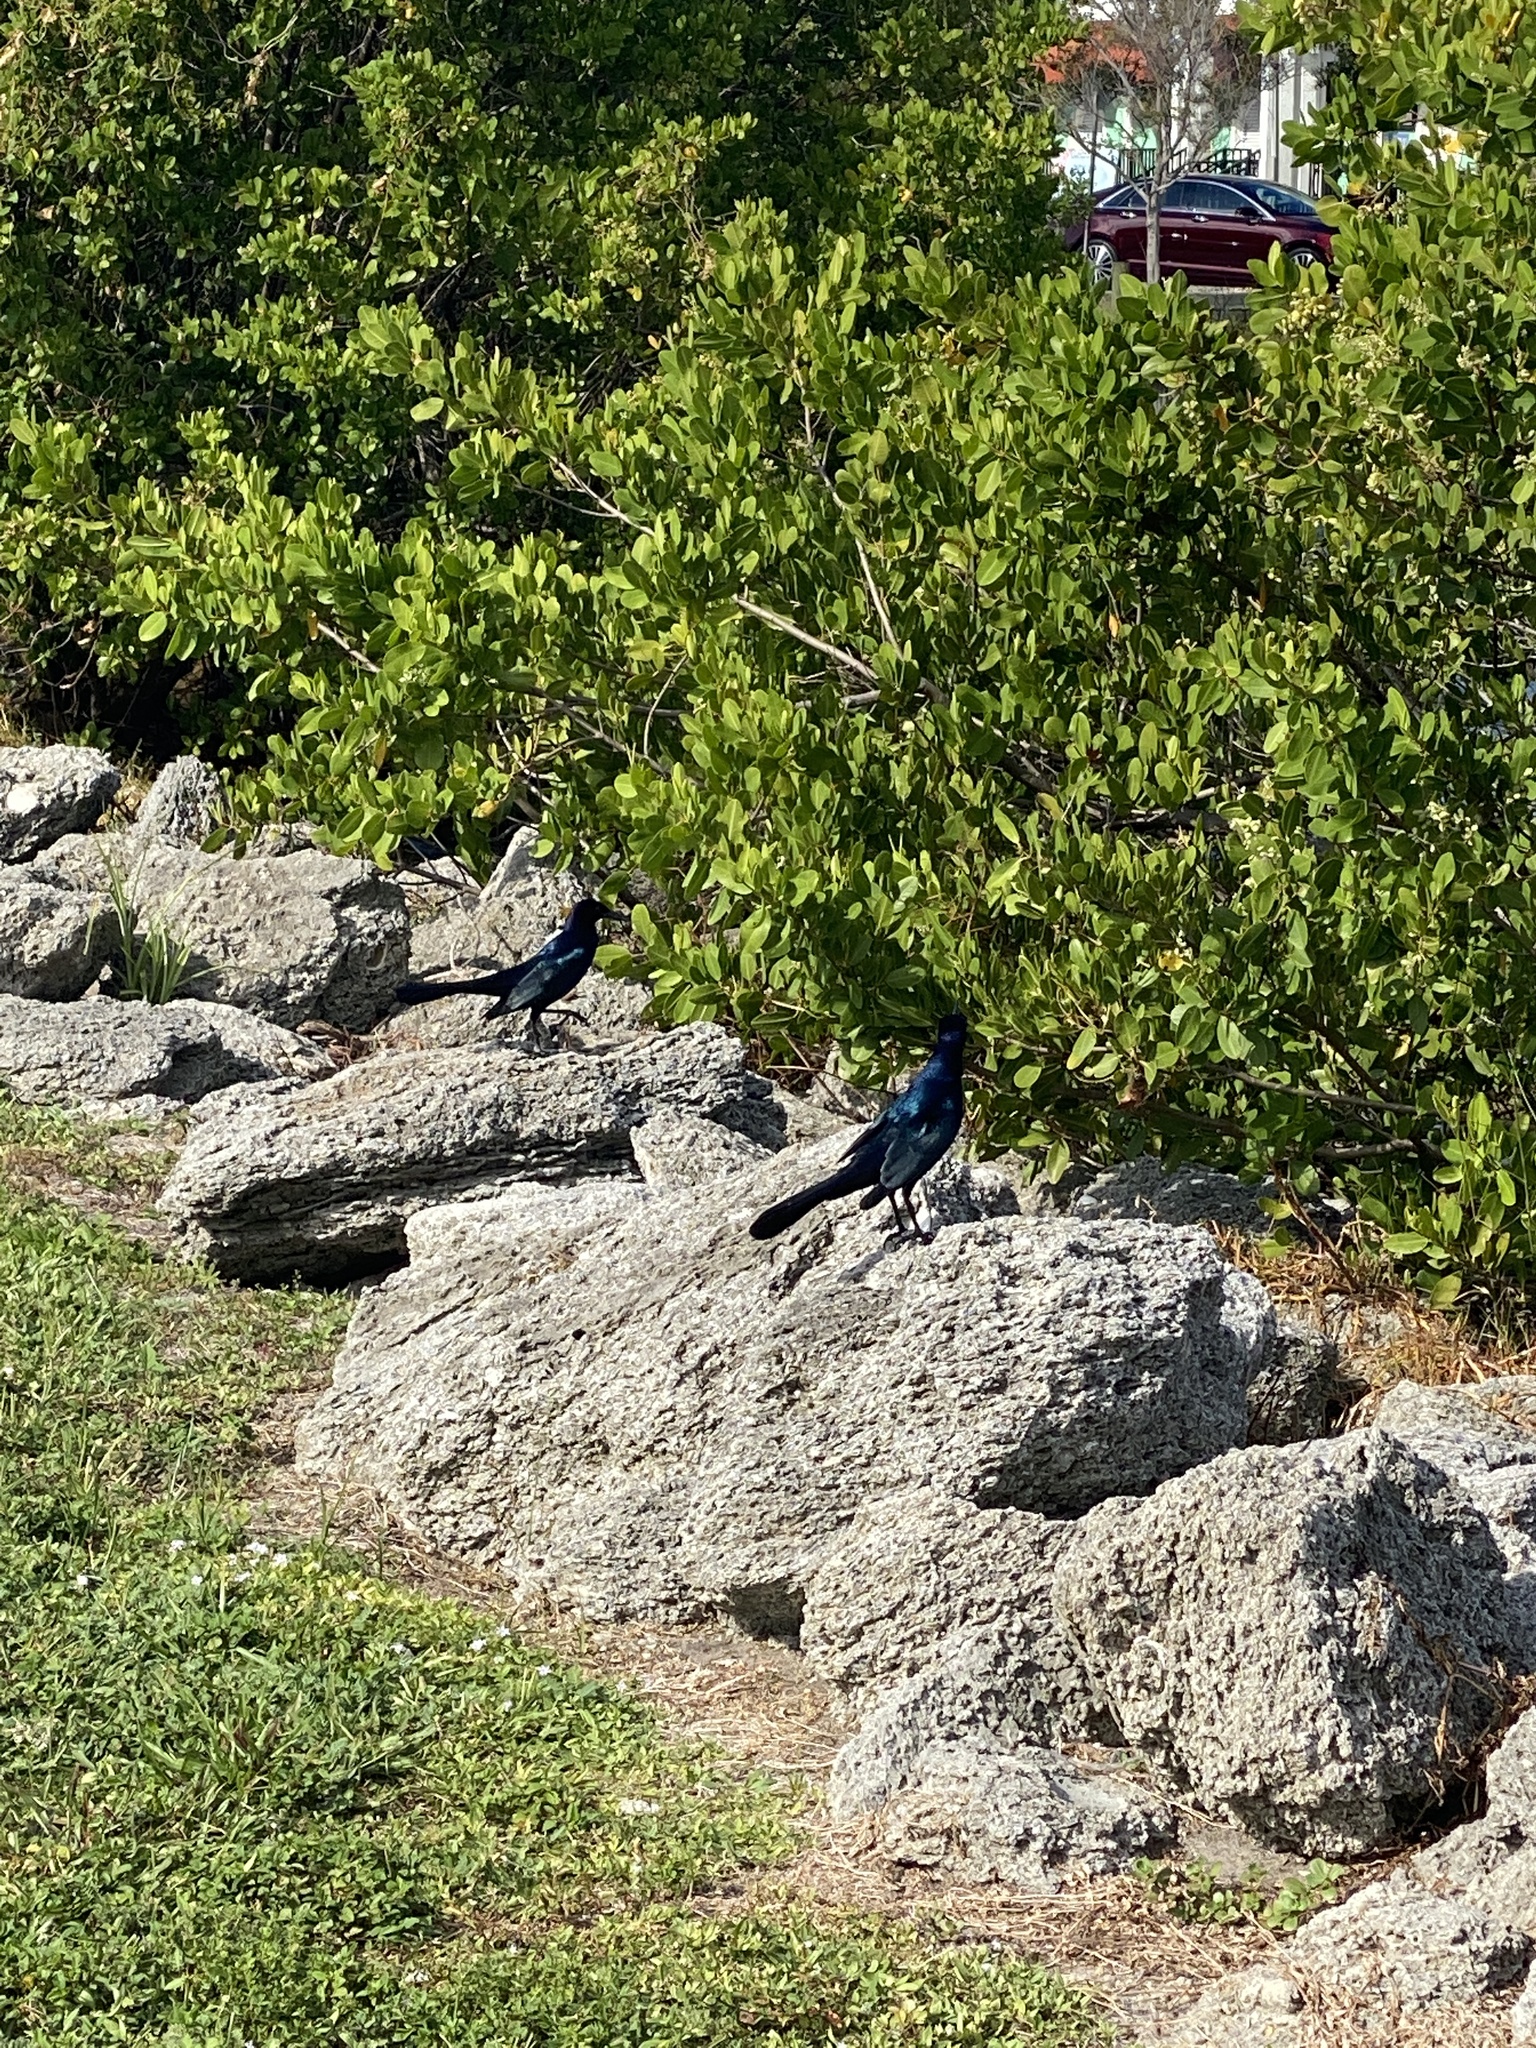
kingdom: Animalia
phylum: Chordata
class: Aves
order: Passeriformes
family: Icteridae
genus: Quiscalus
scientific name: Quiscalus major
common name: Boat-tailed grackle
